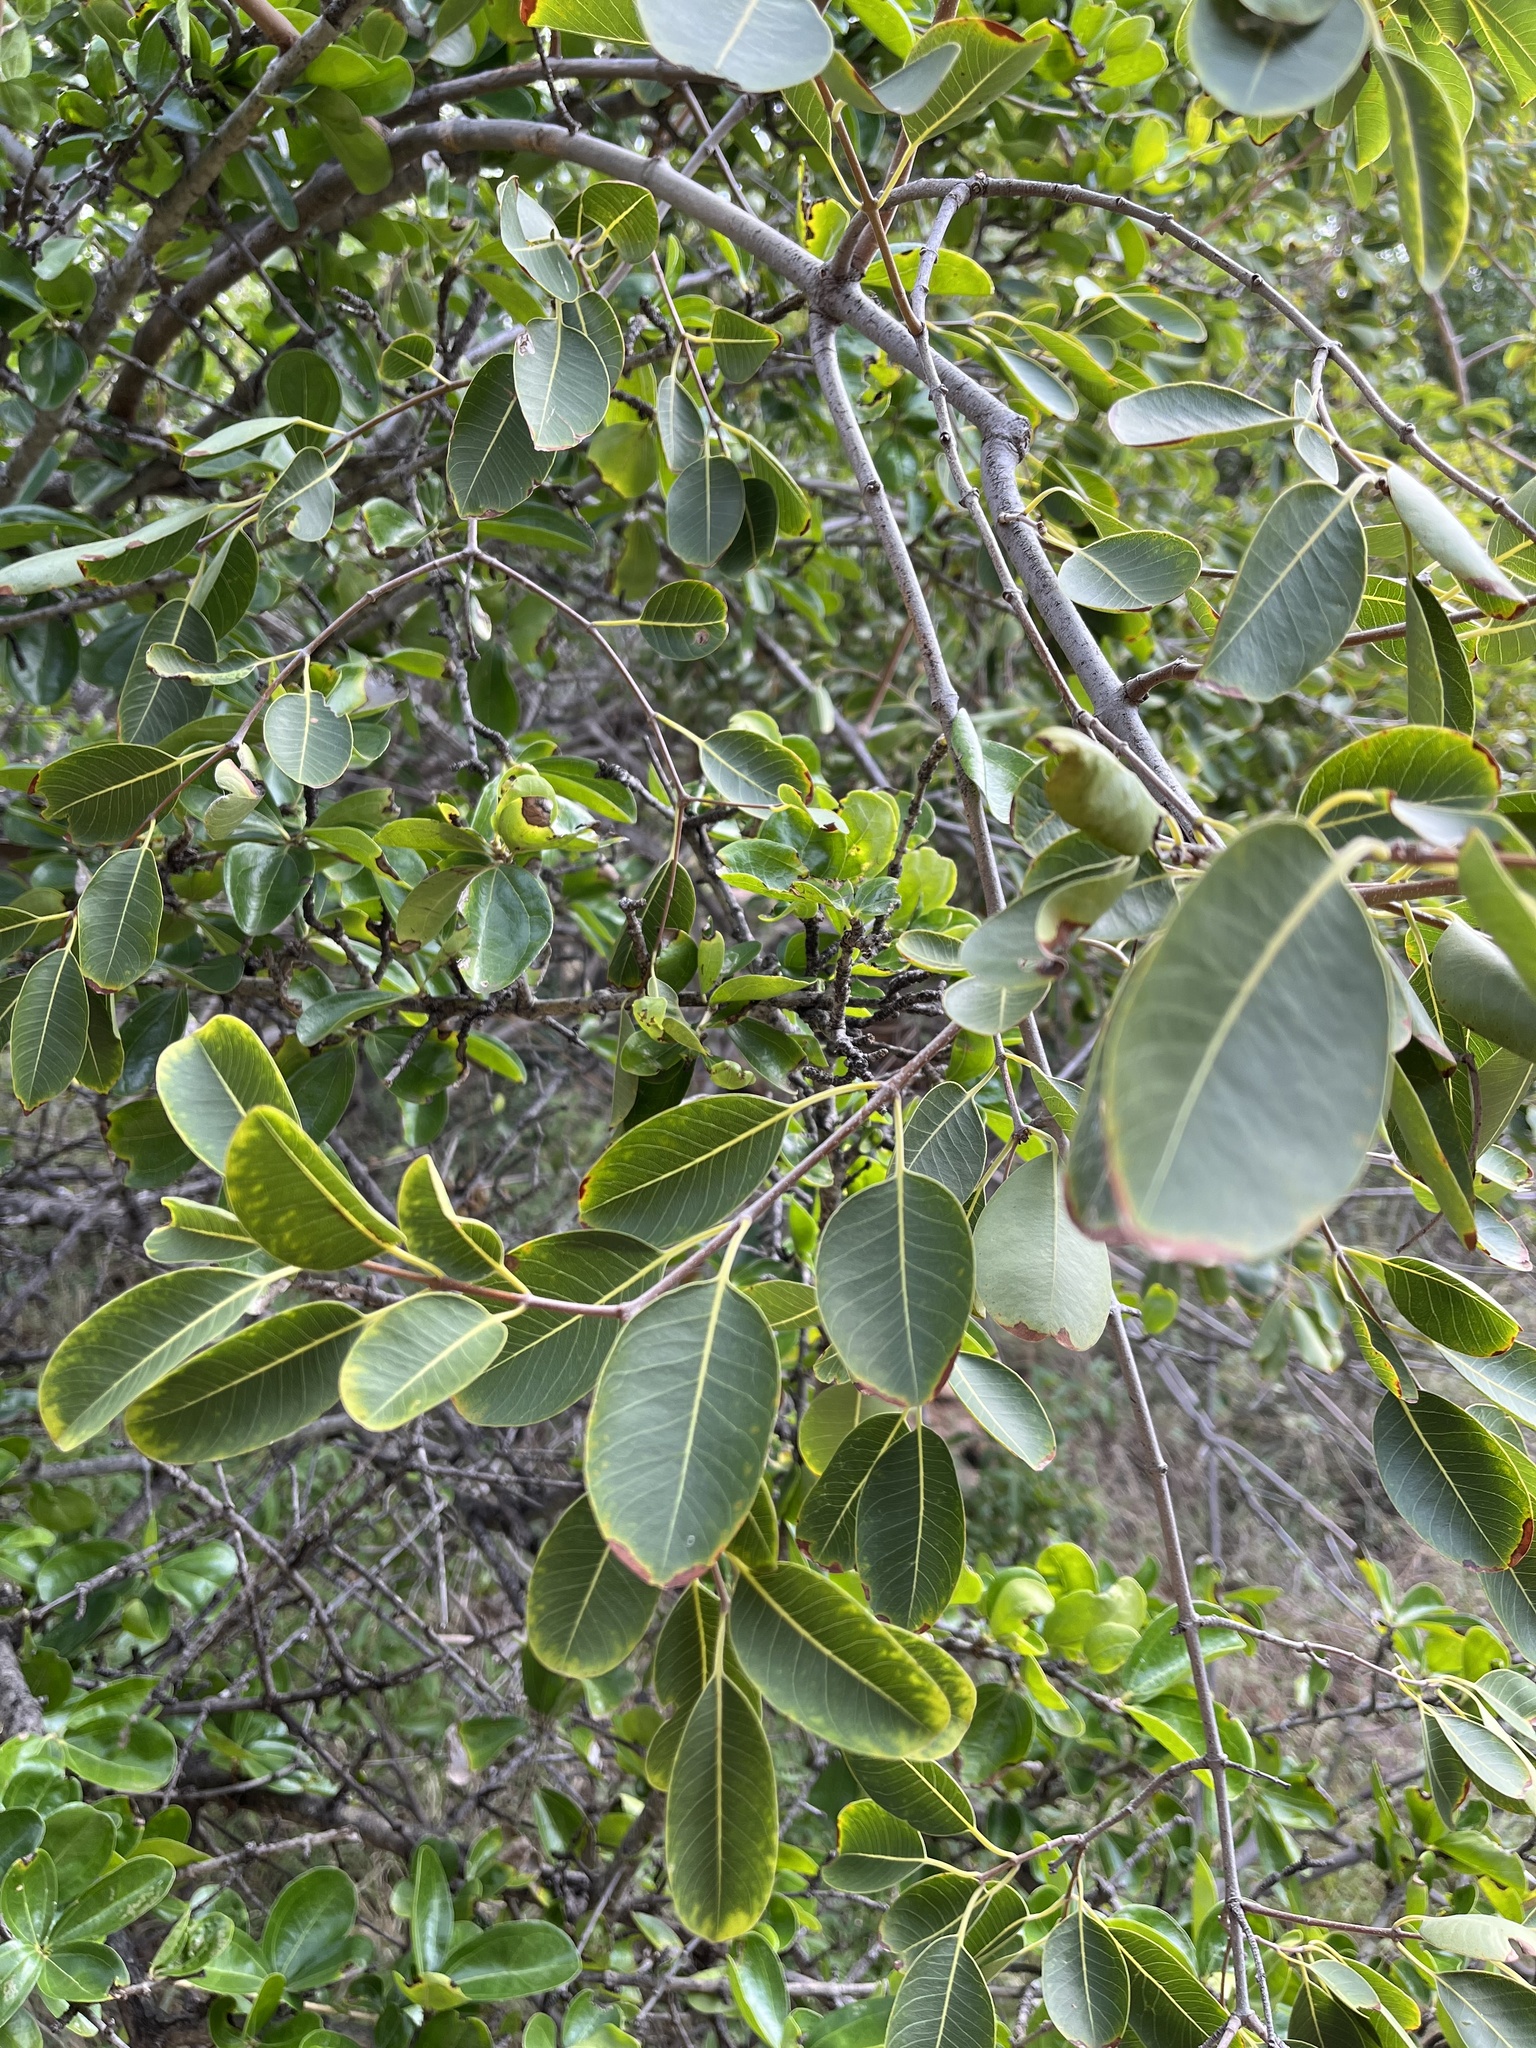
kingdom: Plantae
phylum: Tracheophyta
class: Magnoliopsida
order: Gentianales
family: Apocynaceae
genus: Diplorhynchus
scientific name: Diplorhynchus condylocarpon
